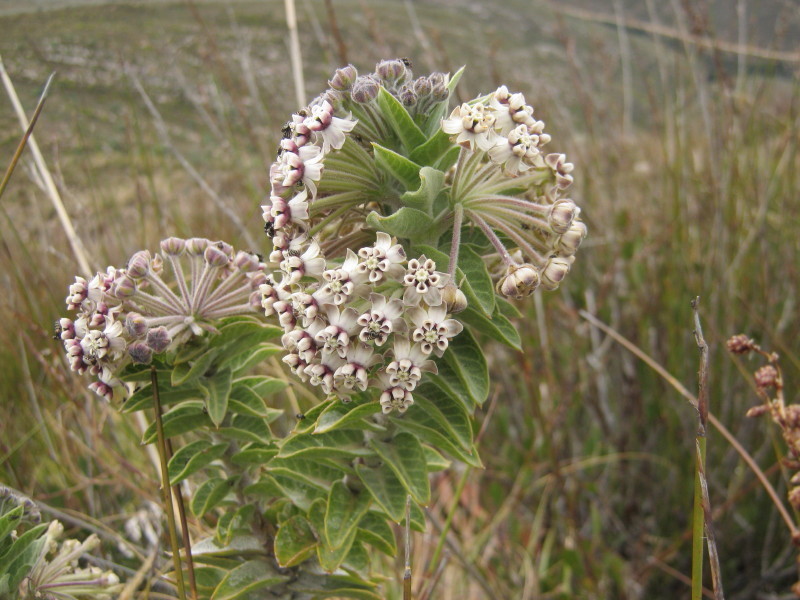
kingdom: Plantae
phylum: Tracheophyta
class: Magnoliopsida
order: Gentianales
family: Apocynaceae
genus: Gomphocarpus
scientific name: Gomphocarpus cancellatus
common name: Wild cotton
